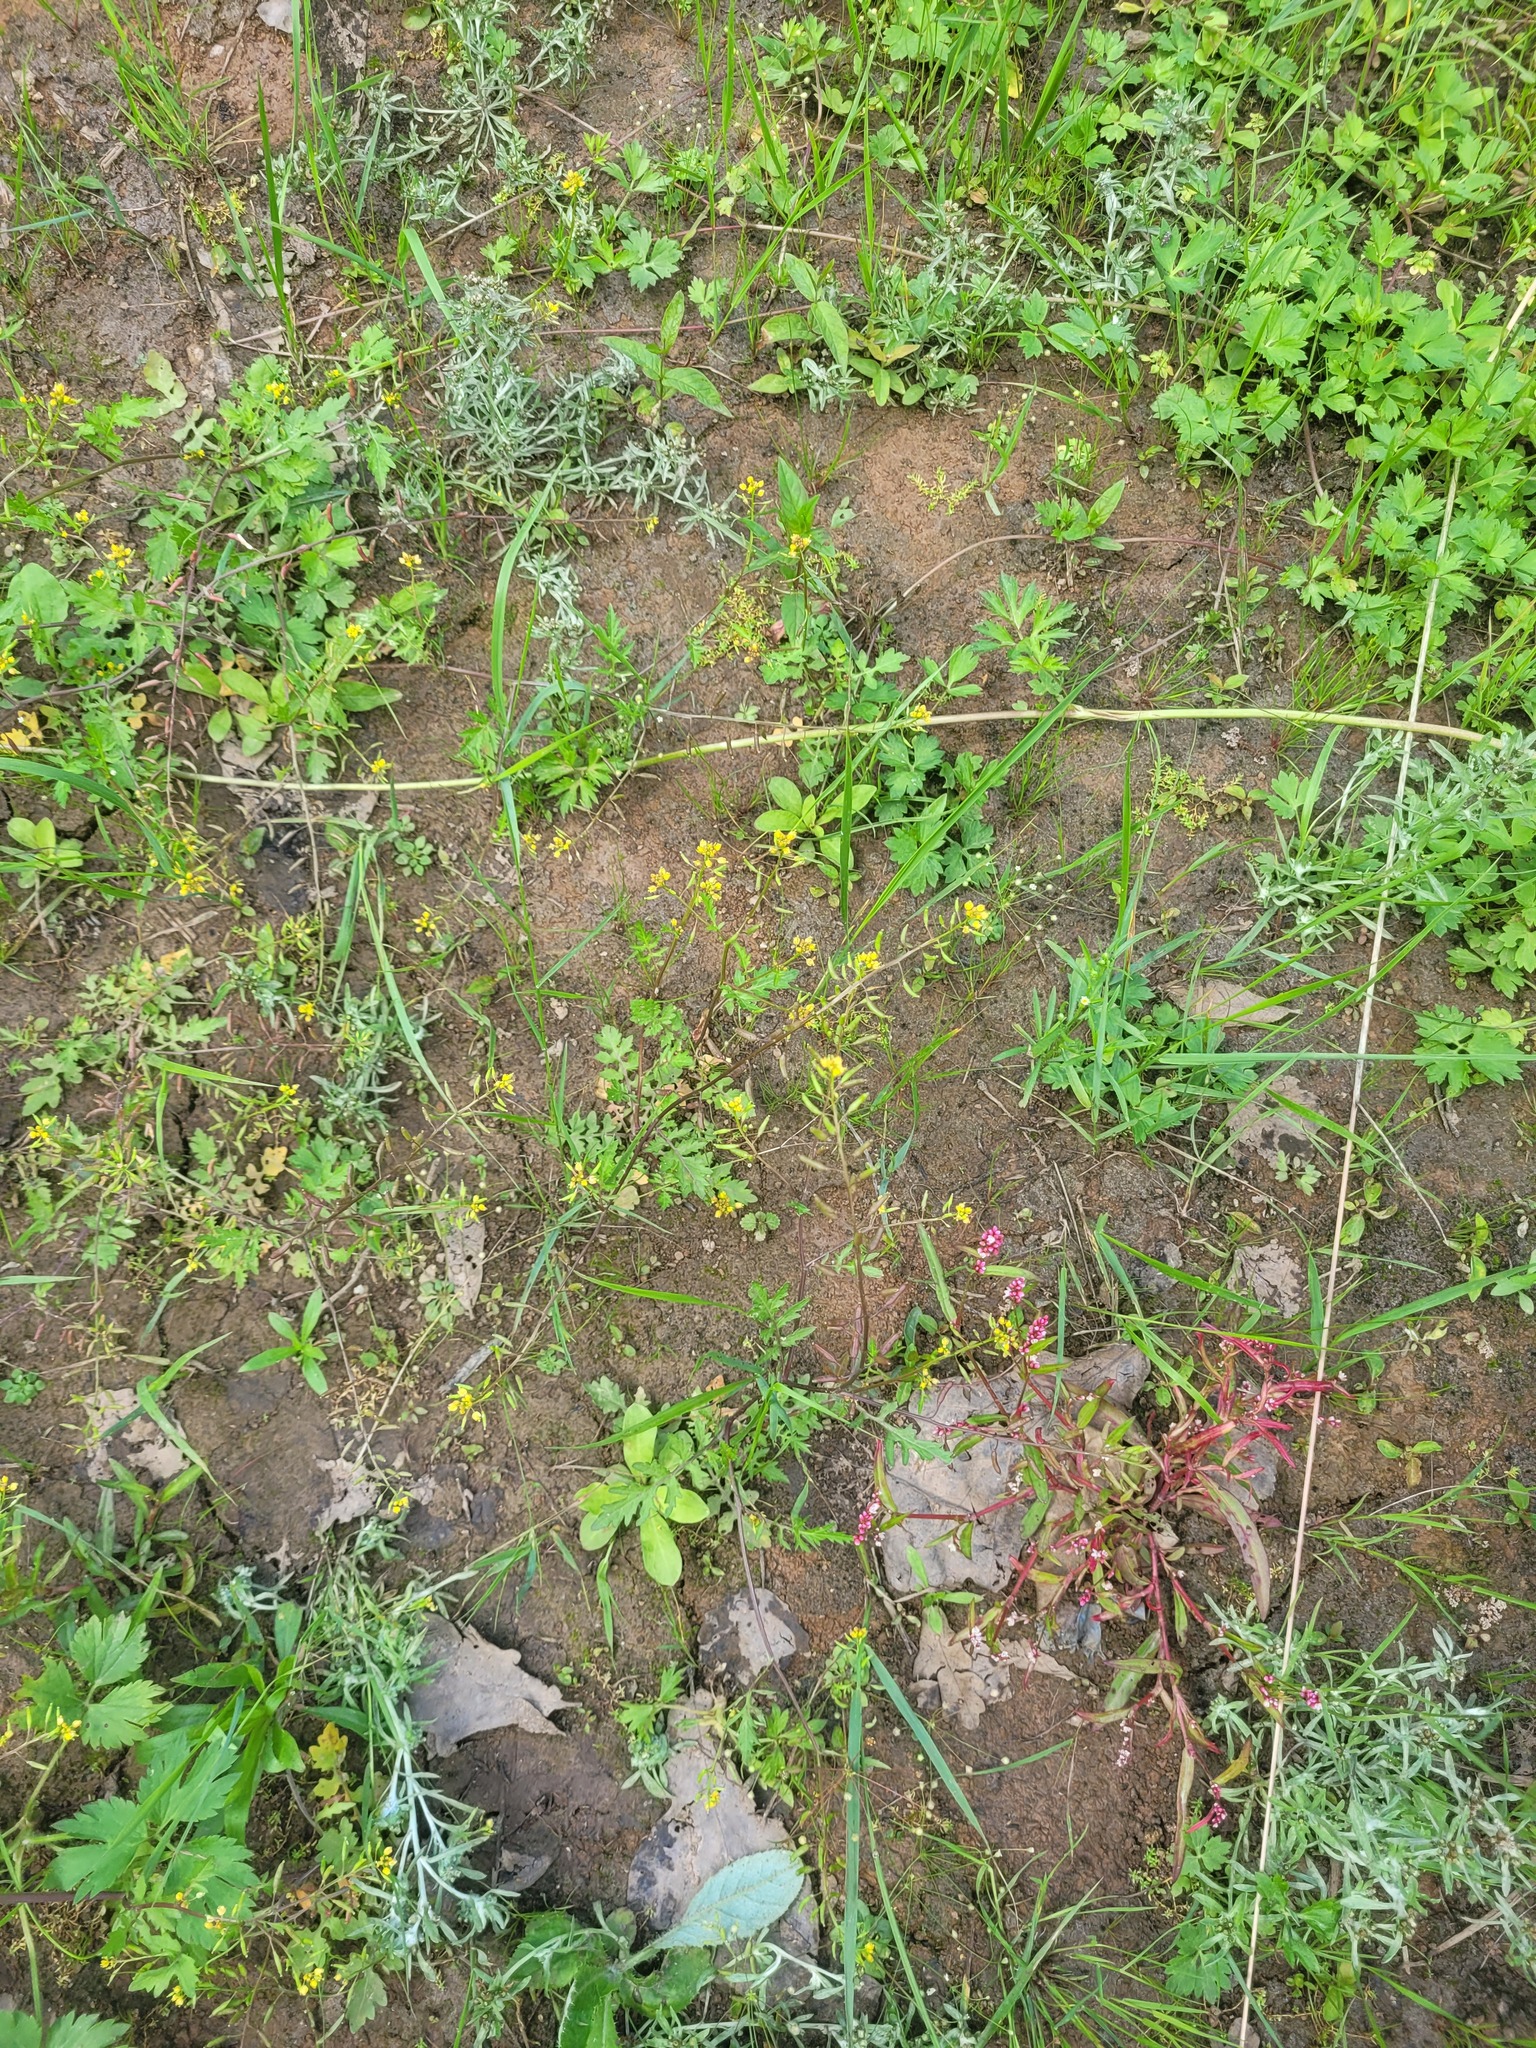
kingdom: Plantae
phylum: Tracheophyta
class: Magnoliopsida
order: Brassicales
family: Brassicaceae
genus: Rorippa
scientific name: Rorippa palustris
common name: Marsh yellow-cress
